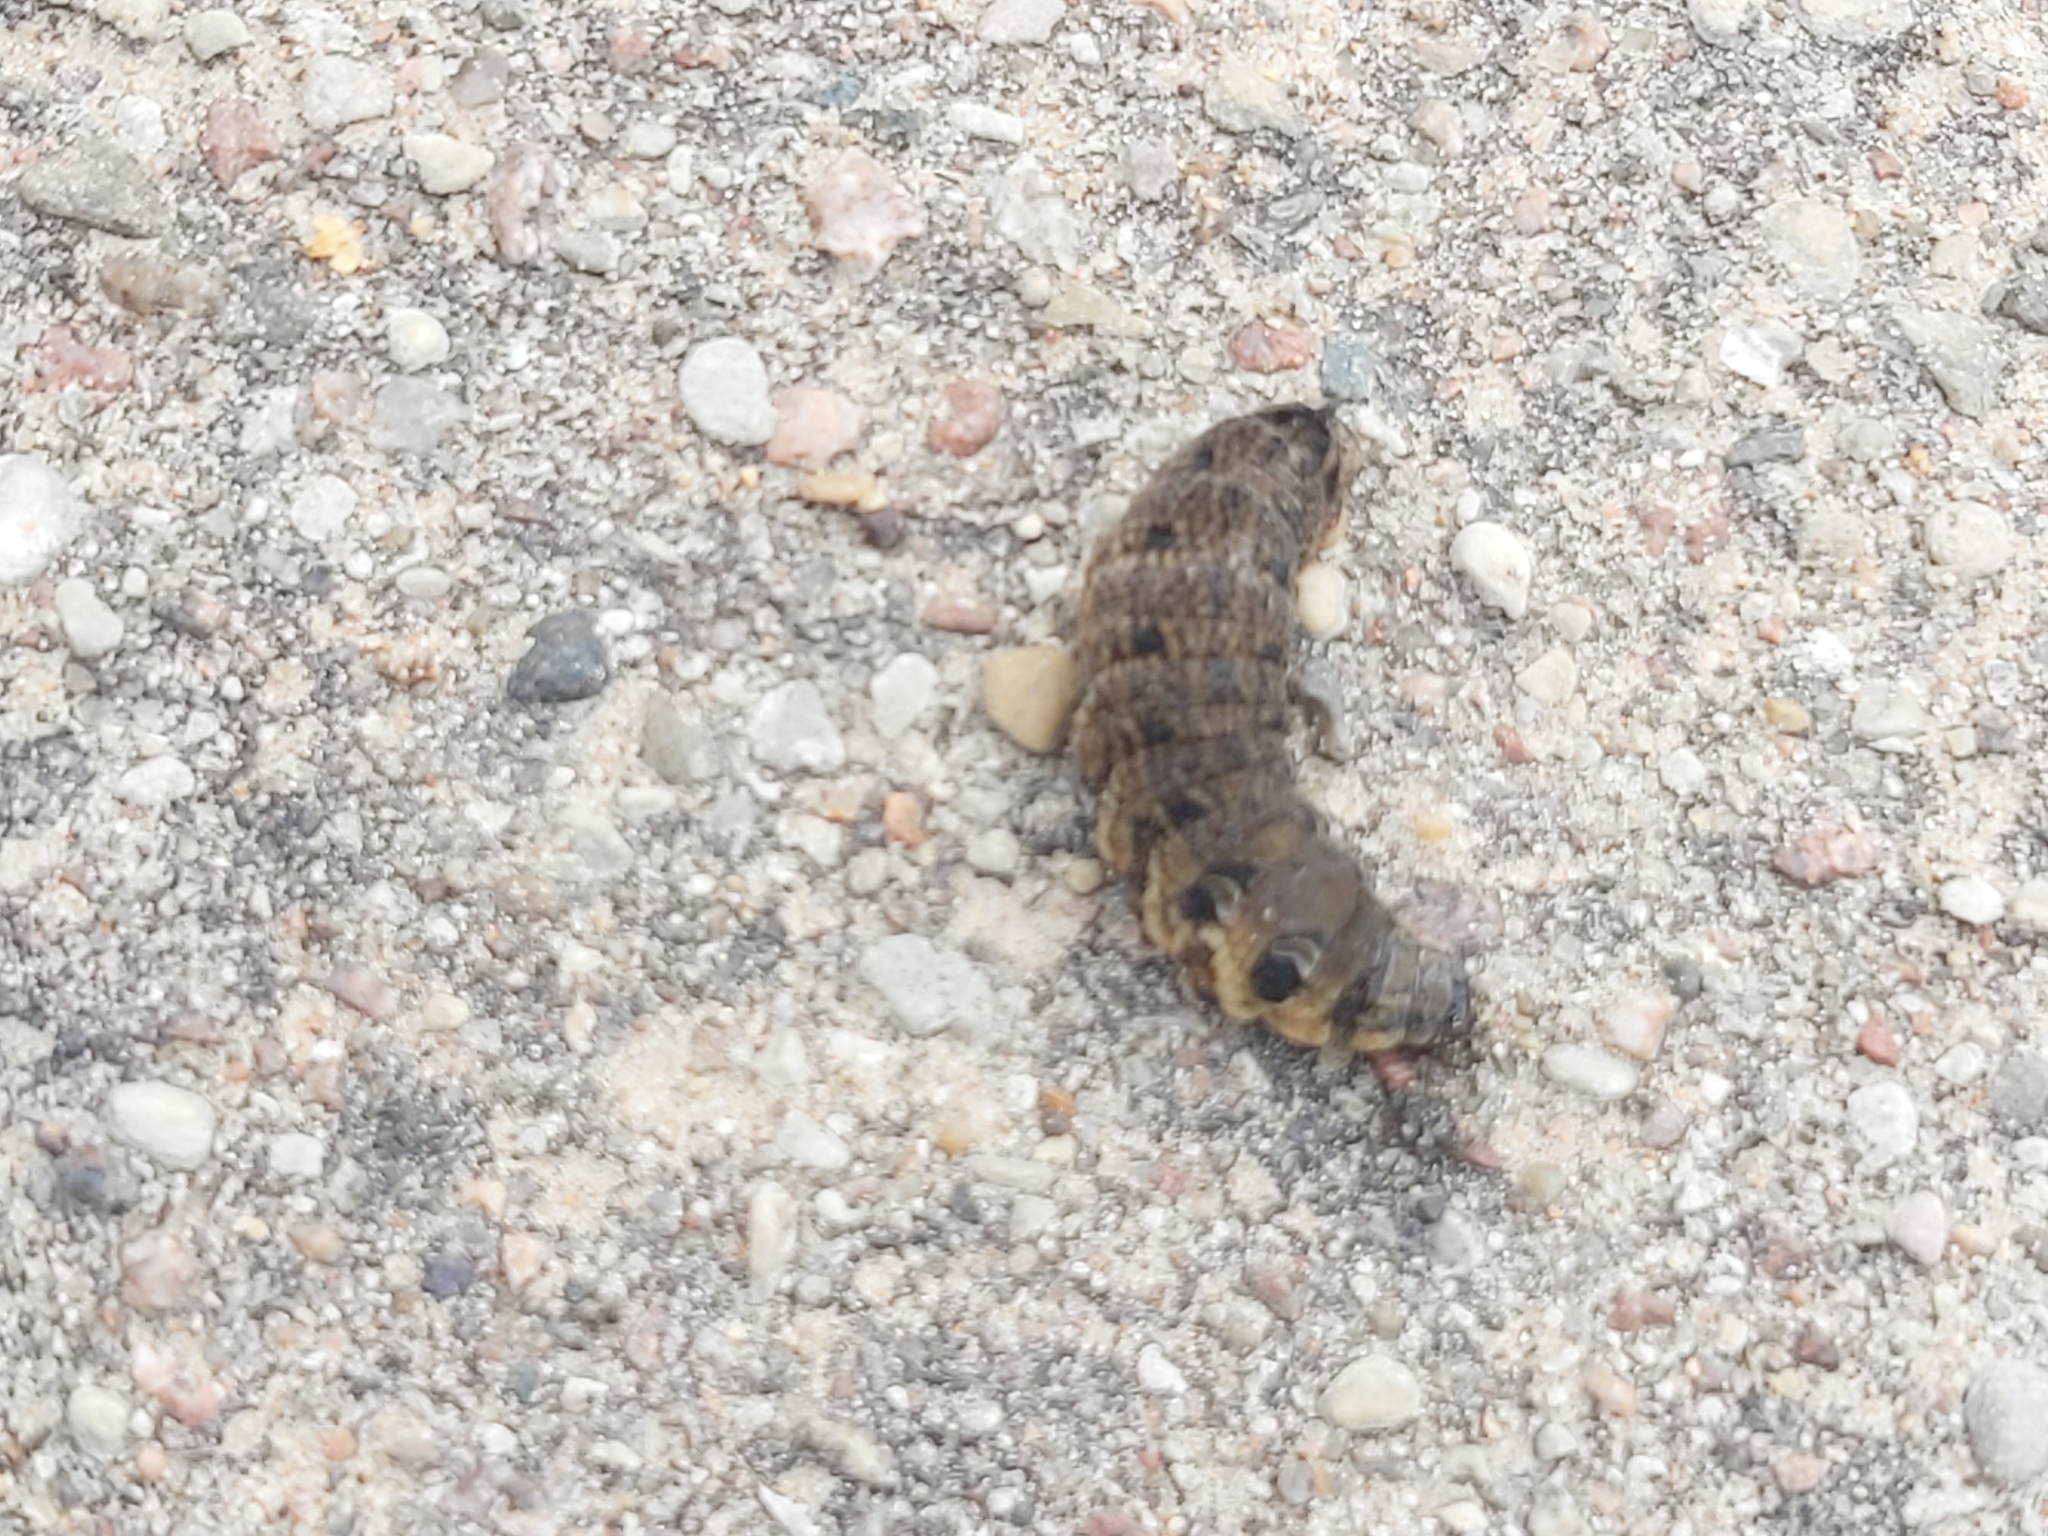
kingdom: Animalia
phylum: Arthropoda
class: Insecta
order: Lepidoptera
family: Sphingidae
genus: Deilephila
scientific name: Deilephila elpenor
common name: Elephant hawk-moth
